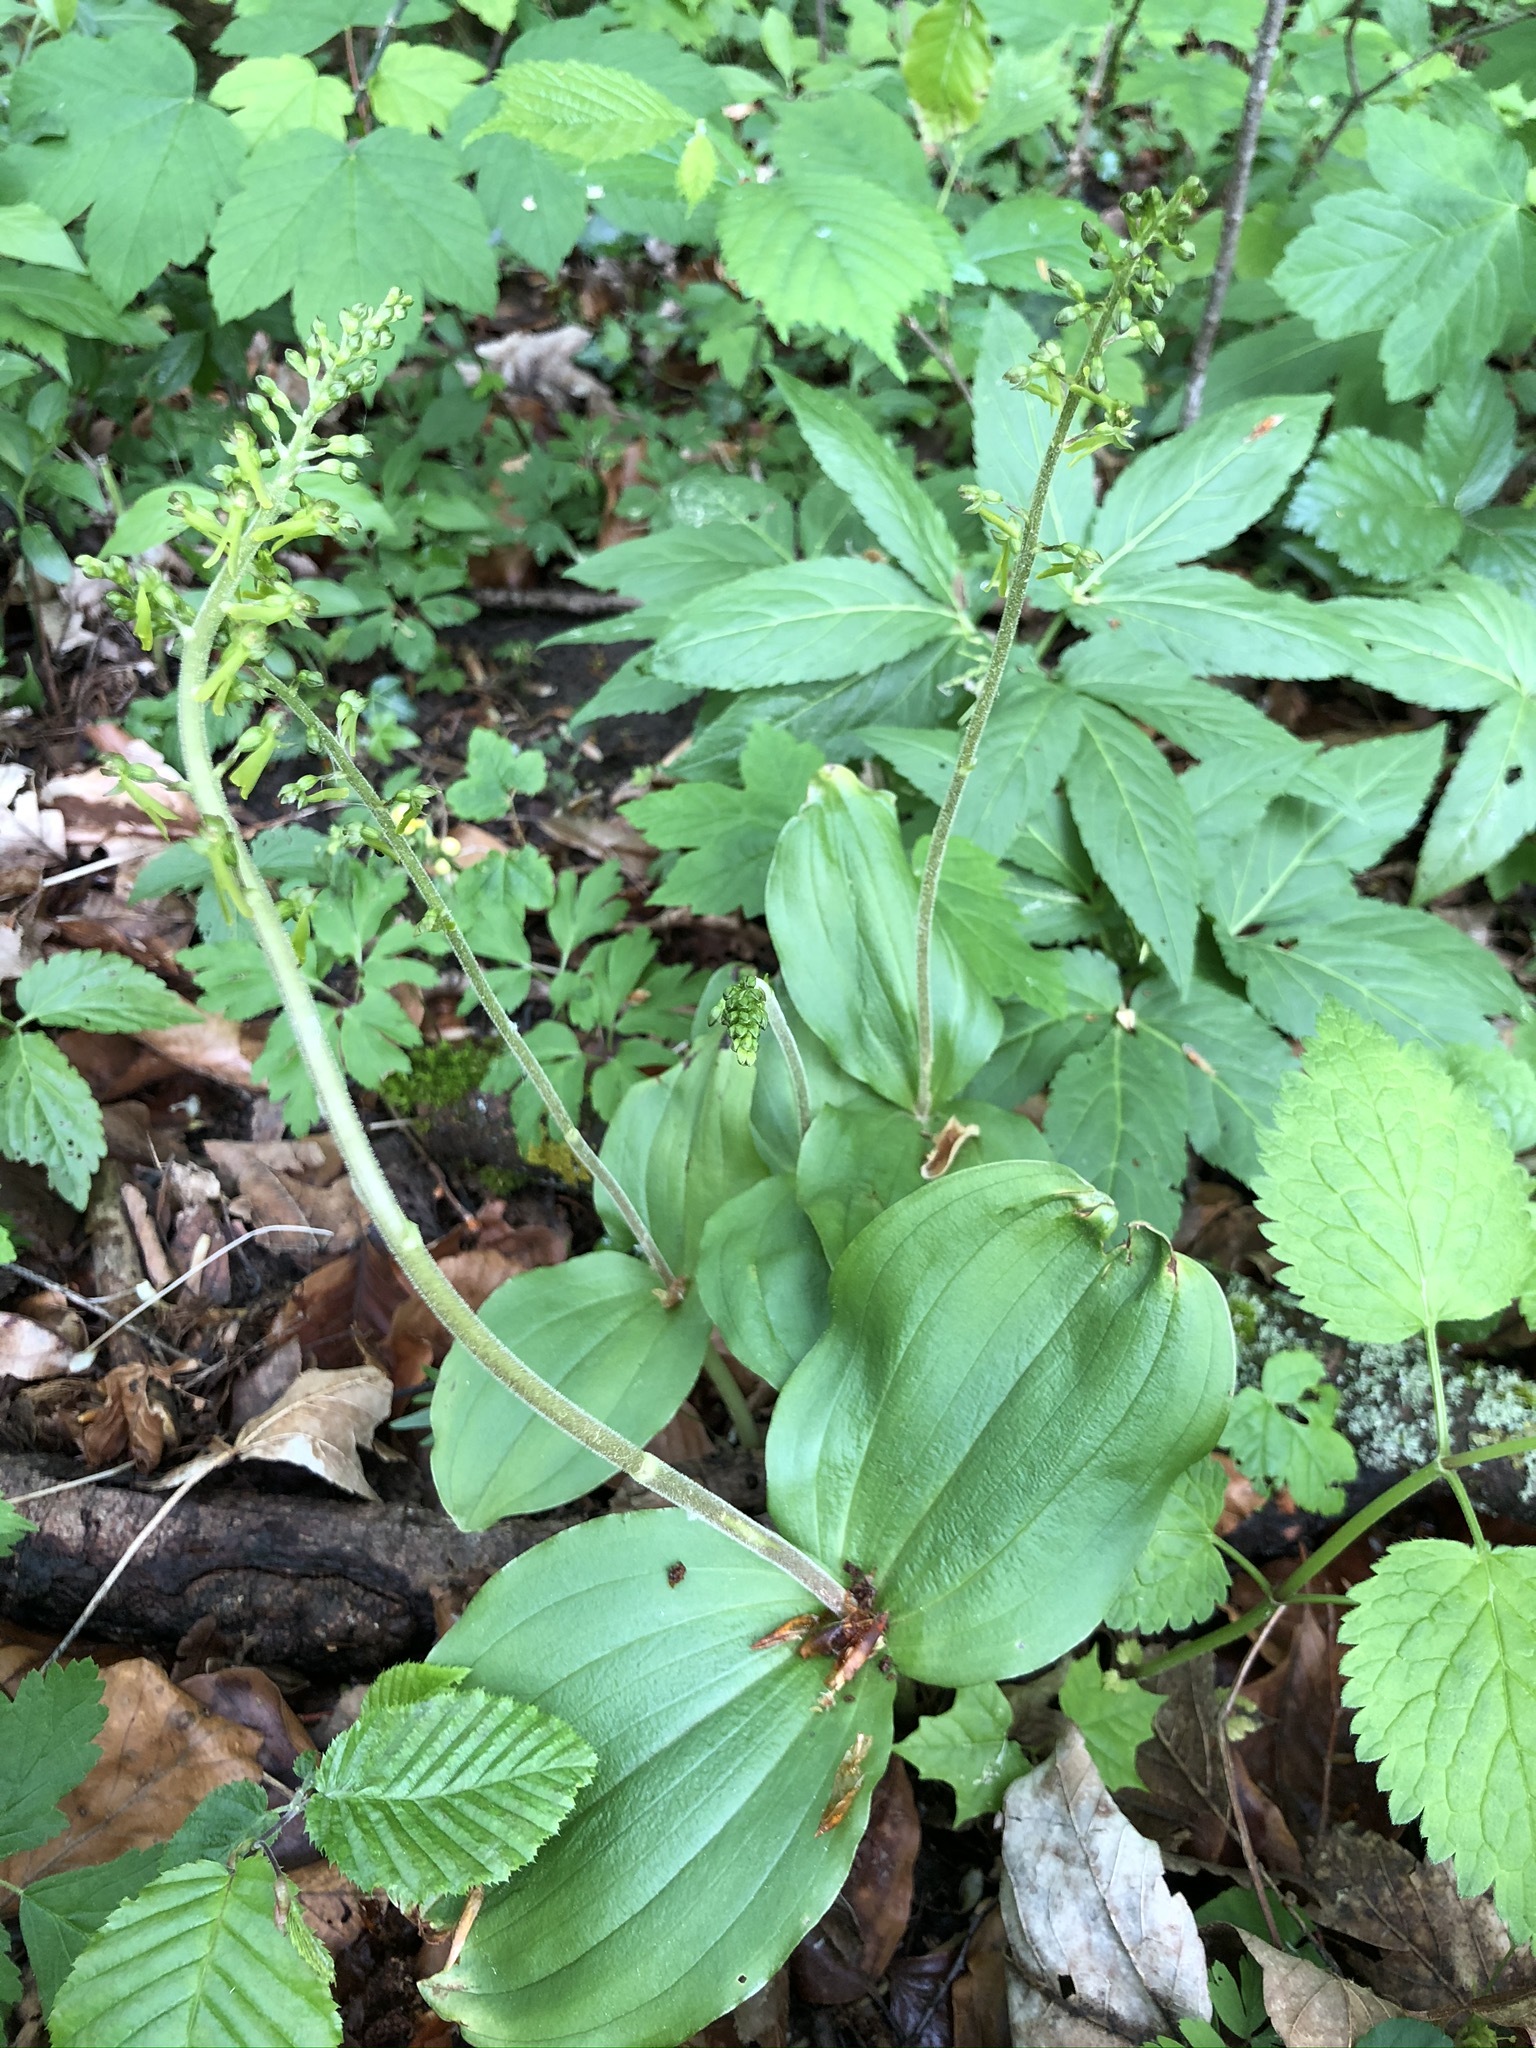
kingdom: Plantae
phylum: Tracheophyta
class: Liliopsida
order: Asparagales
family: Orchidaceae
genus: Neottia
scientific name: Neottia ovata
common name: Common twayblade
